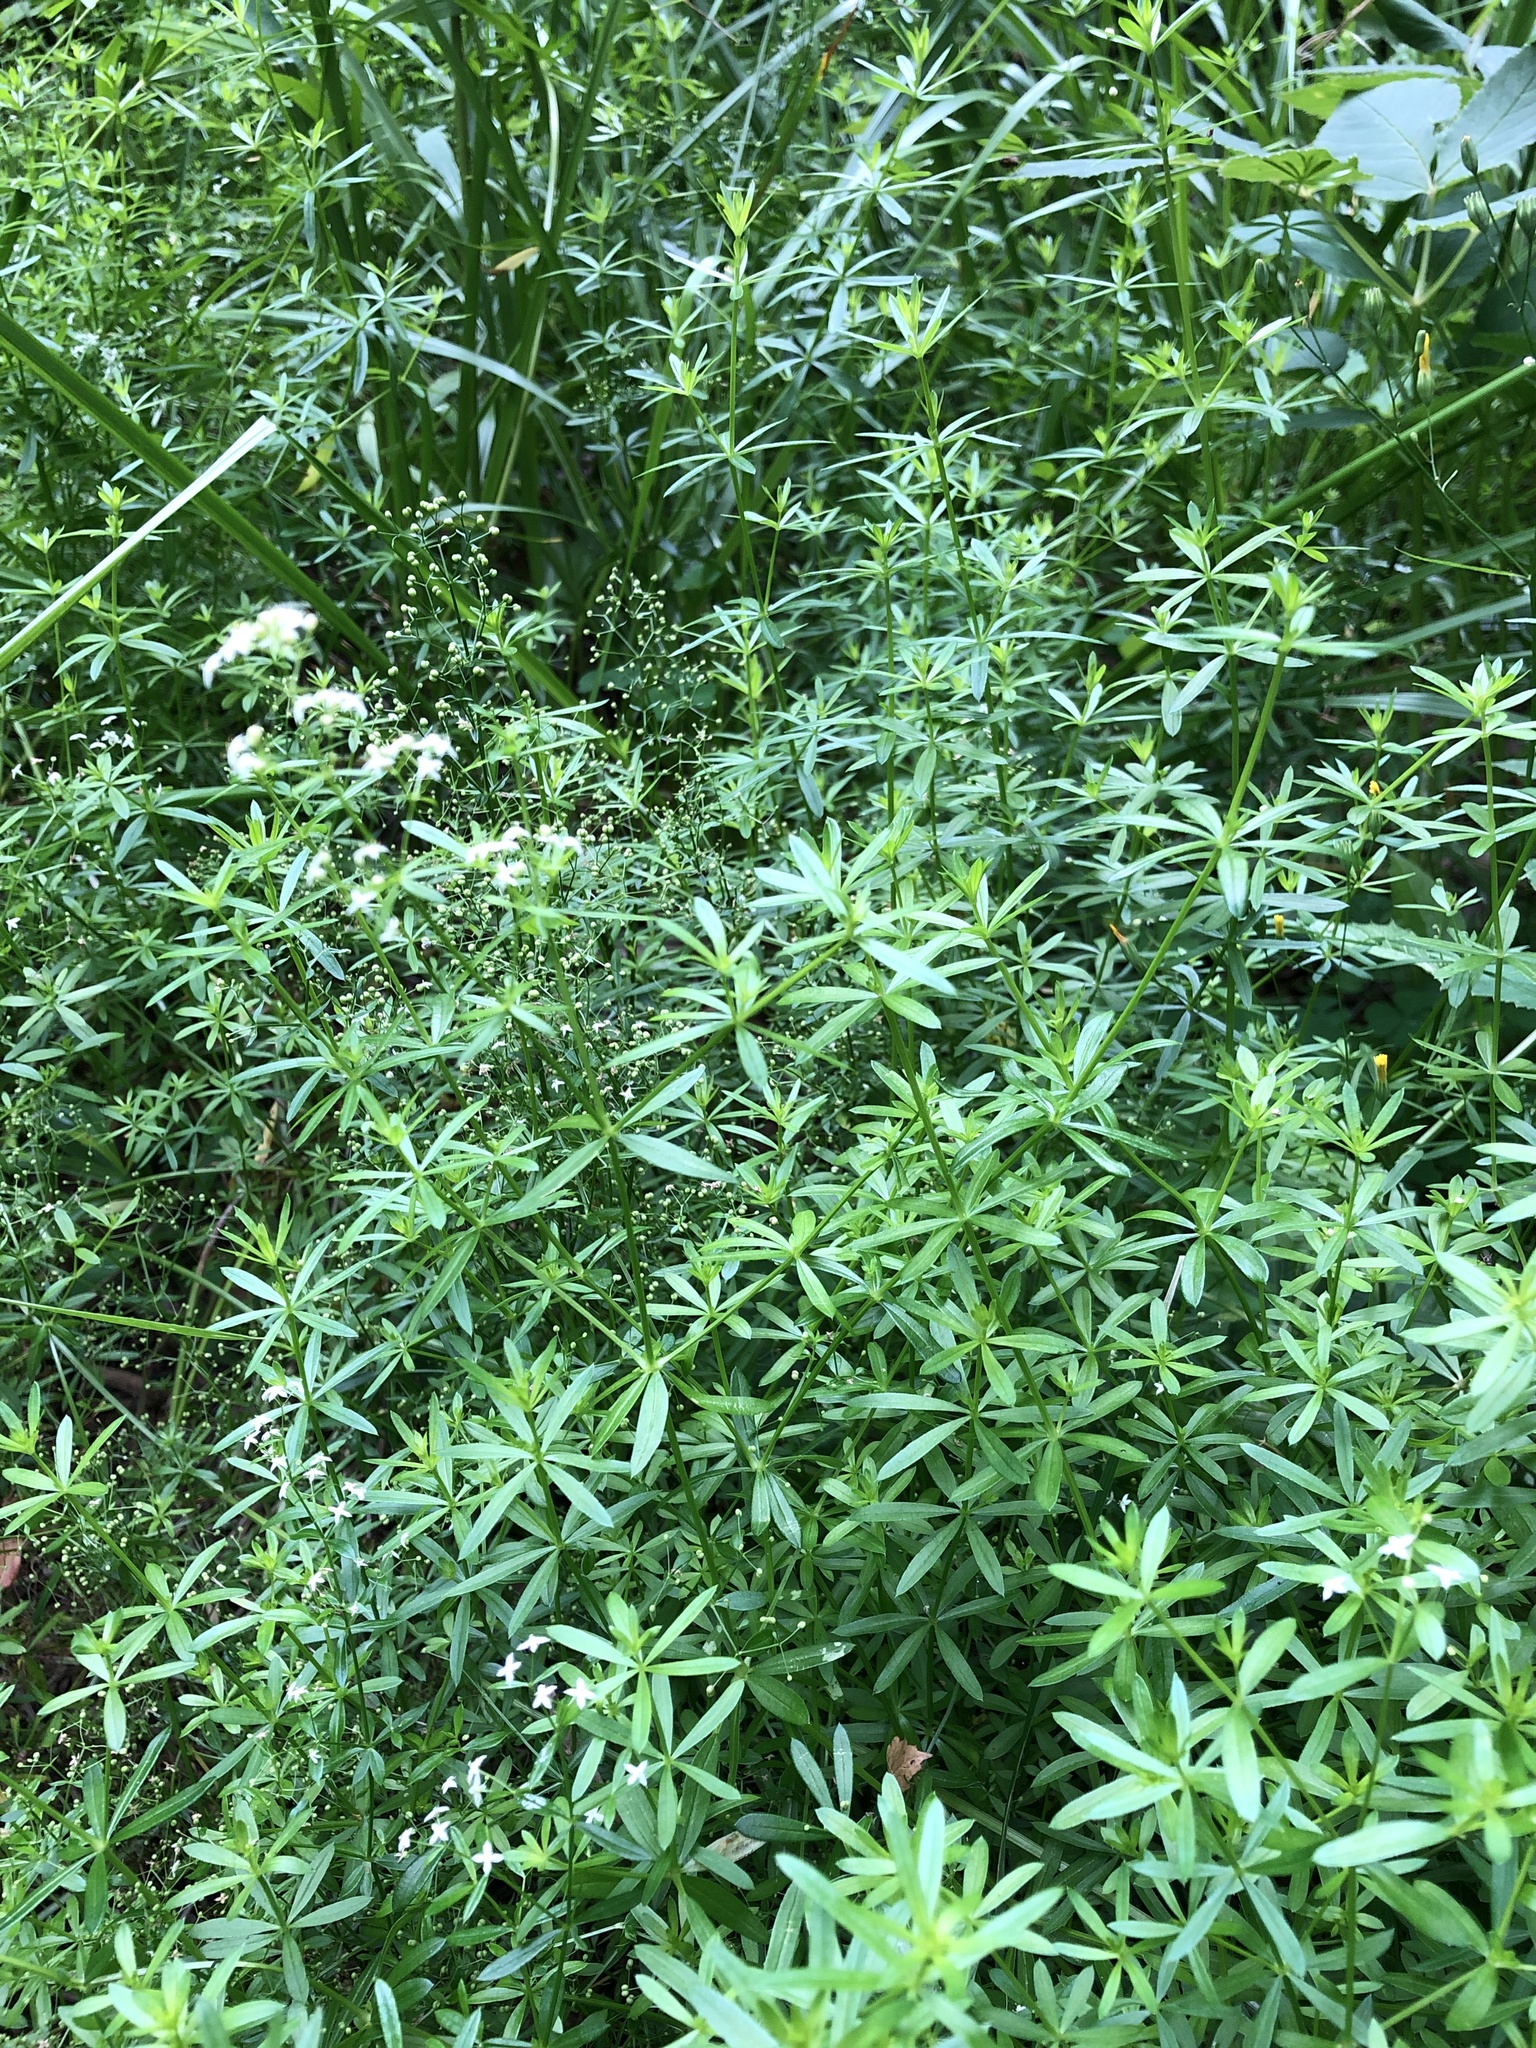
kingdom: Plantae
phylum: Tracheophyta
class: Magnoliopsida
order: Gentianales
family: Rubiaceae
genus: Galium
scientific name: Galium mollugo
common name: Hedge bedstraw
